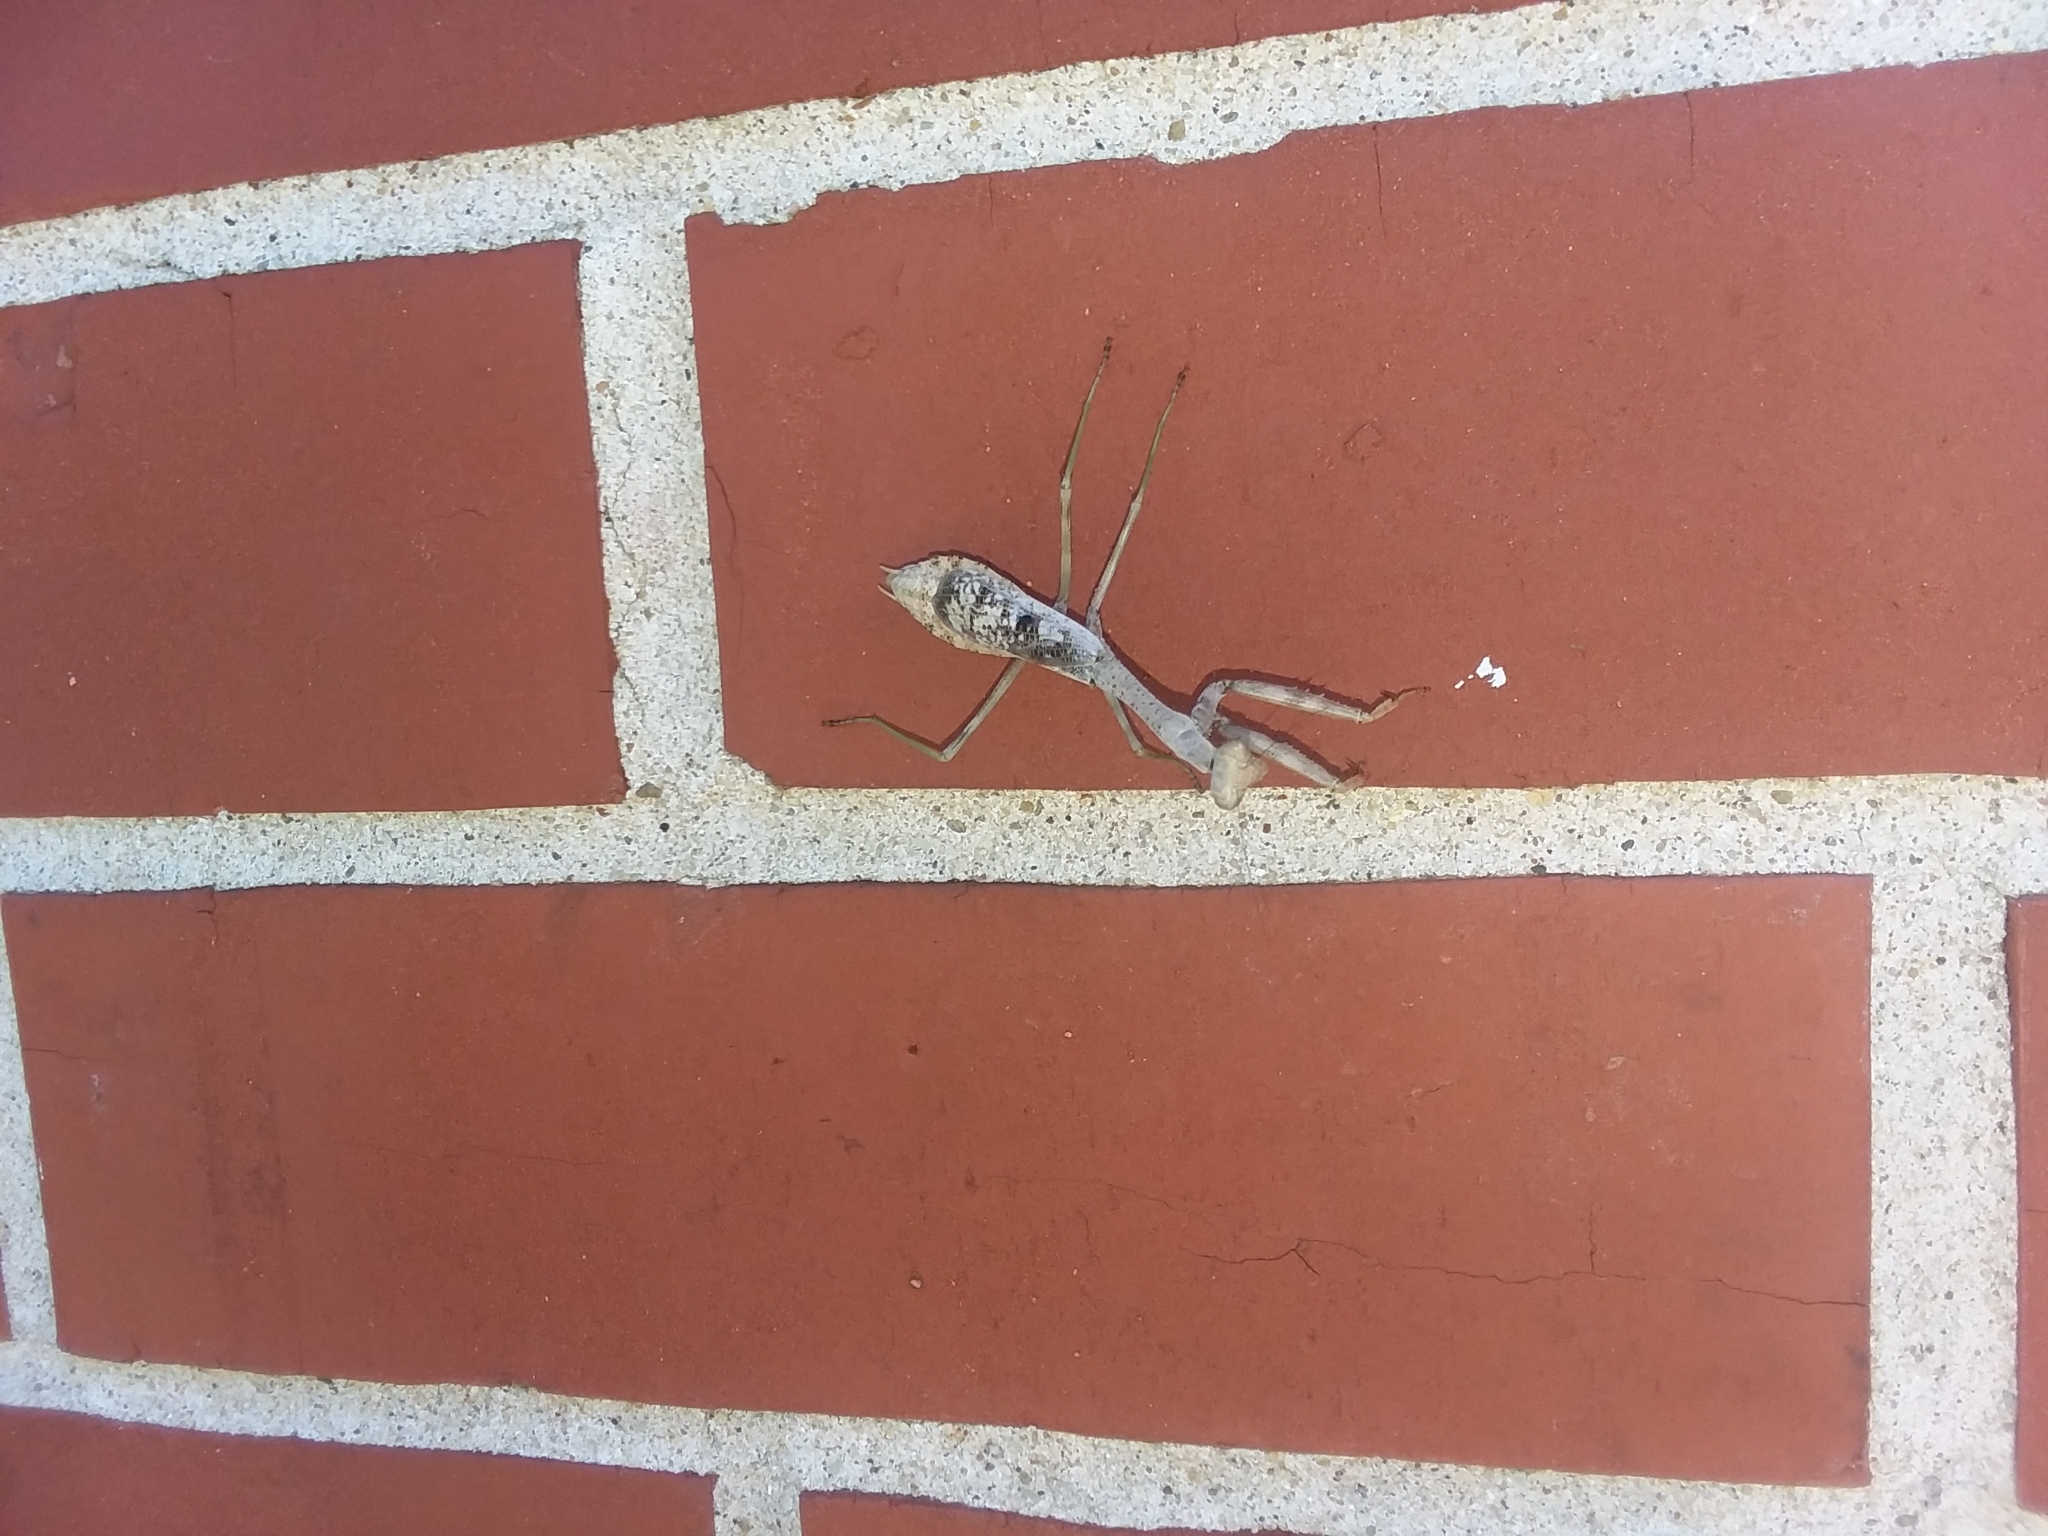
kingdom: Animalia
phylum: Arthropoda
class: Insecta
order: Mantodea
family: Mantidae
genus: Stagmomantis
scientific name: Stagmomantis carolina
